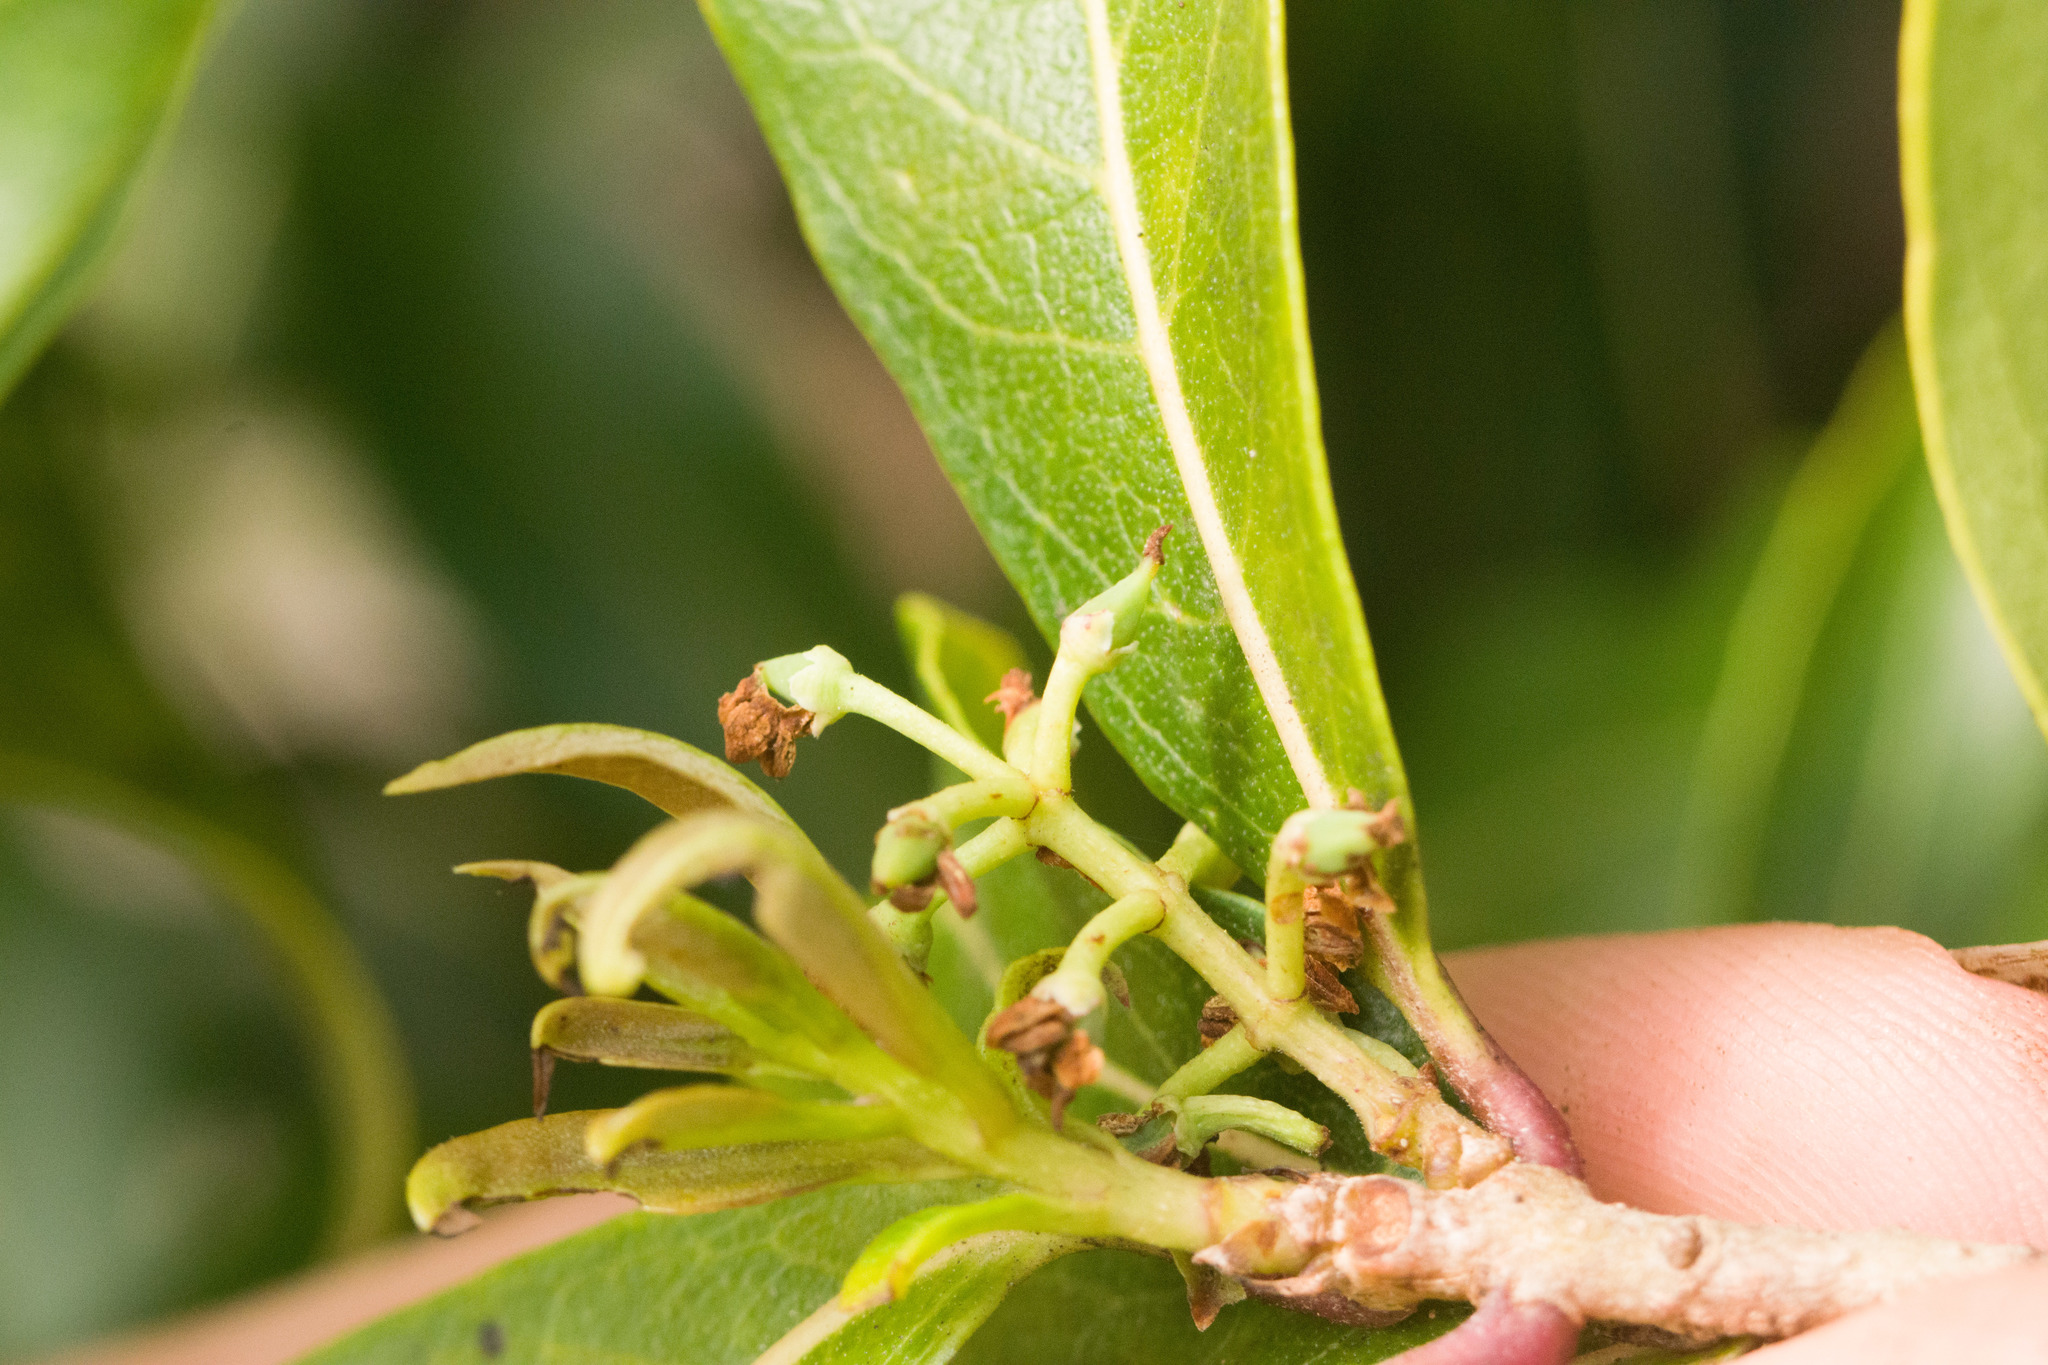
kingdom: Plantae
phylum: Tracheophyta
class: Magnoliopsida
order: Lamiales
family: Oleaceae
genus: Nestegis
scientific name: Nestegis sandwicensis
